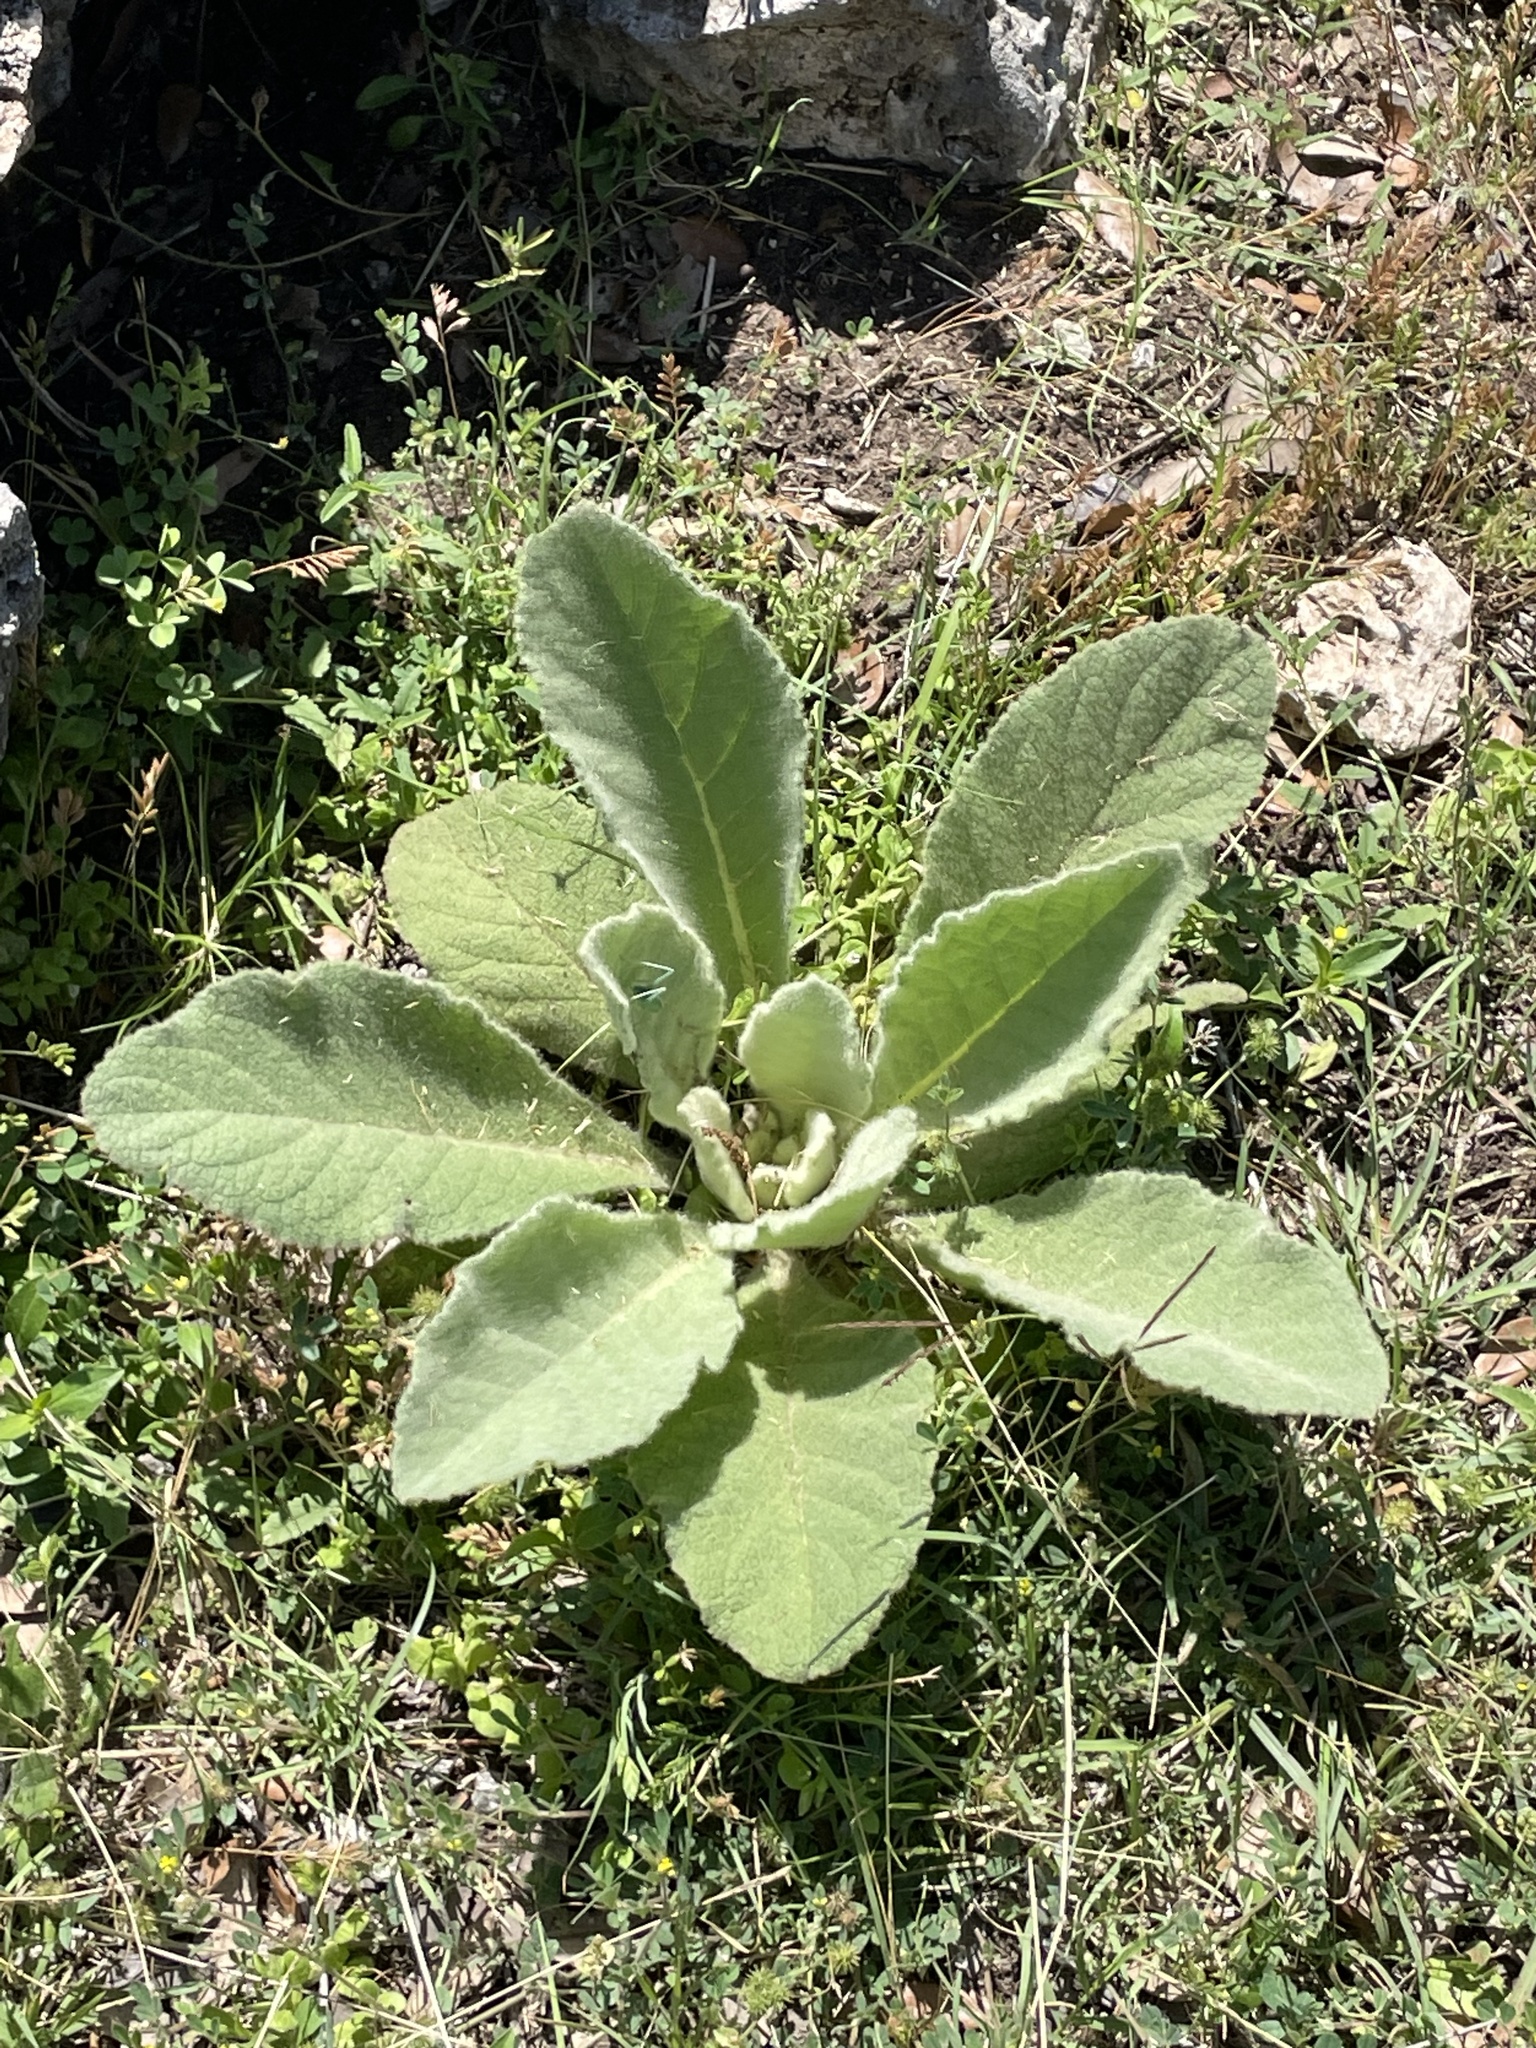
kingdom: Plantae
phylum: Tracheophyta
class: Magnoliopsida
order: Lamiales
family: Scrophulariaceae
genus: Verbascum
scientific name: Verbascum thapsus
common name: Common mullein
